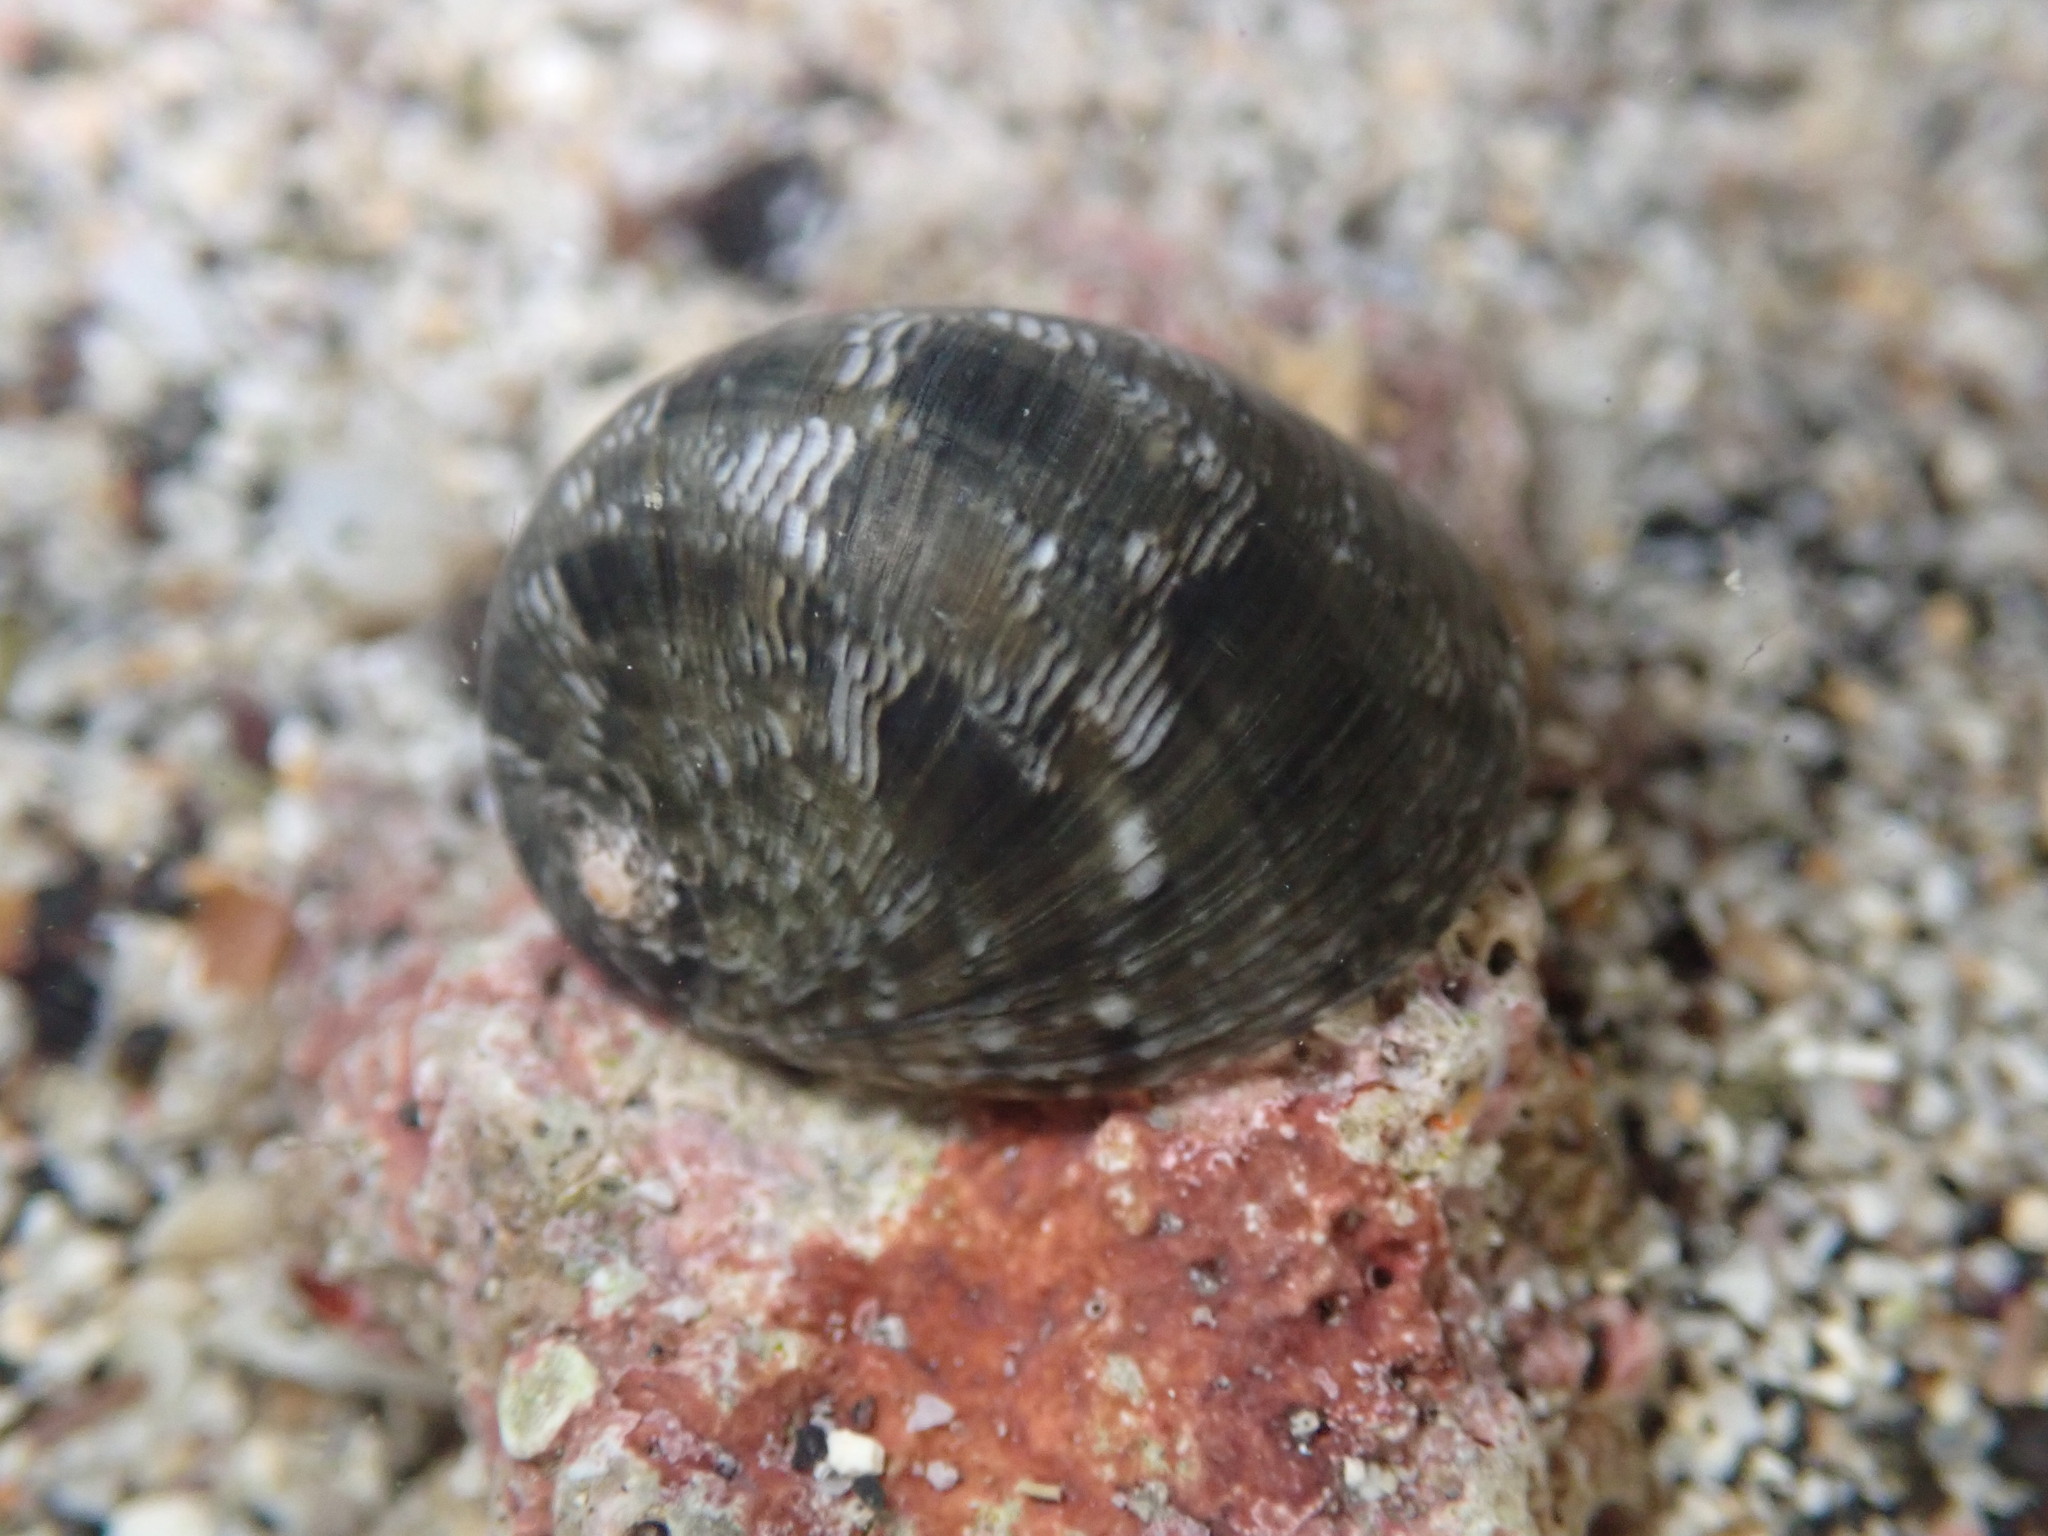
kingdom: Animalia
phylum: Mollusca
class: Gastropoda
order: Cycloneritida
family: Neritidae
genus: Nerita
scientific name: Nerita polita
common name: Polished nerite
